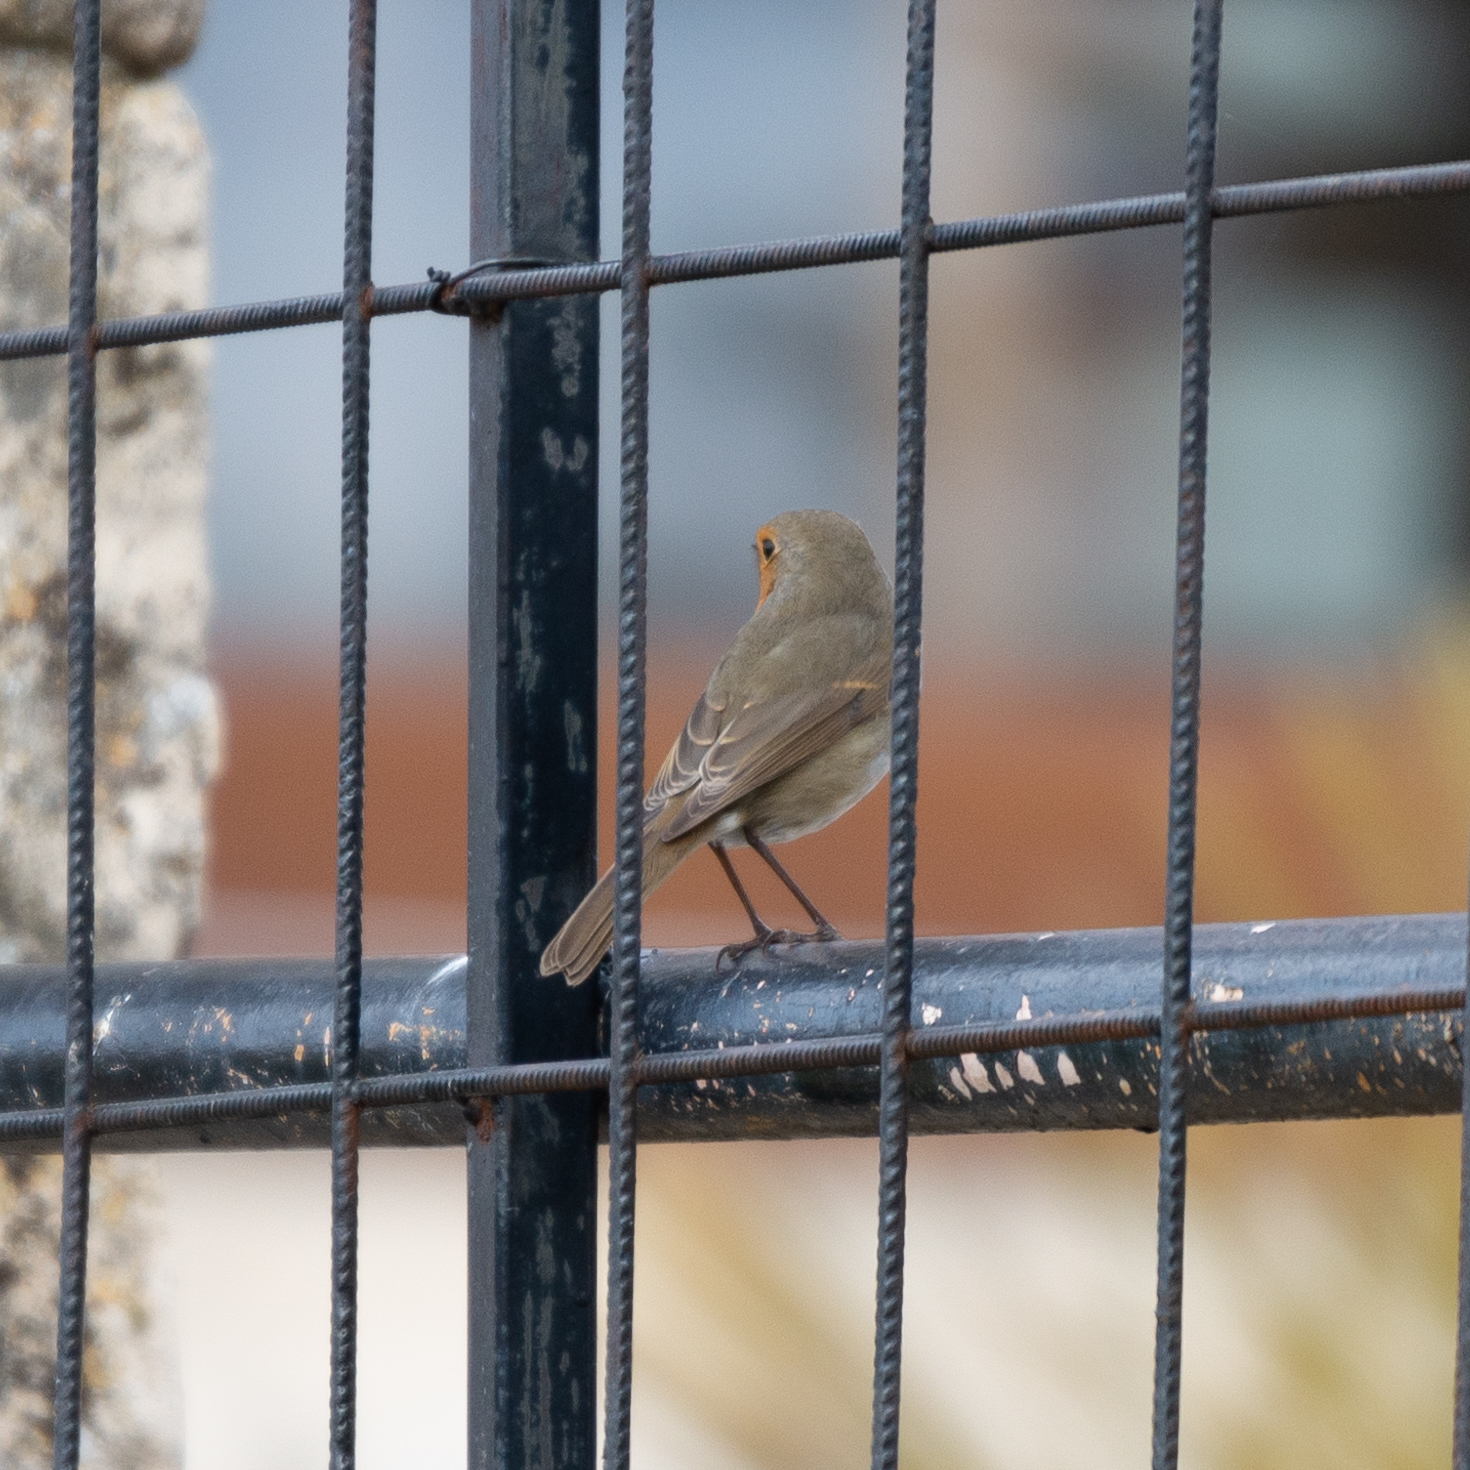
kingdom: Animalia
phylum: Chordata
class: Aves
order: Passeriformes
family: Muscicapidae
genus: Erithacus
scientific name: Erithacus rubecula
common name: European robin
